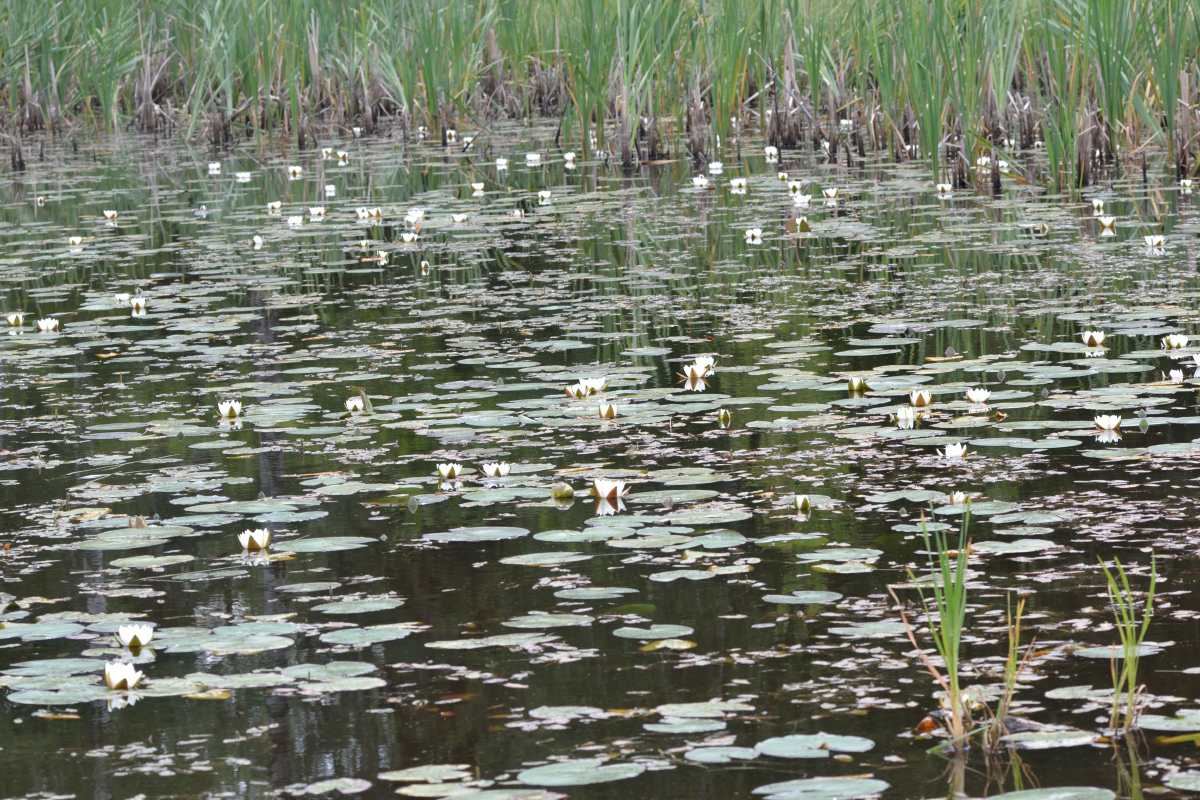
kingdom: Plantae
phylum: Tracheophyta
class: Magnoliopsida
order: Nymphaeales
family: Nymphaeaceae
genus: Nymphaea
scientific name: Nymphaea candida
